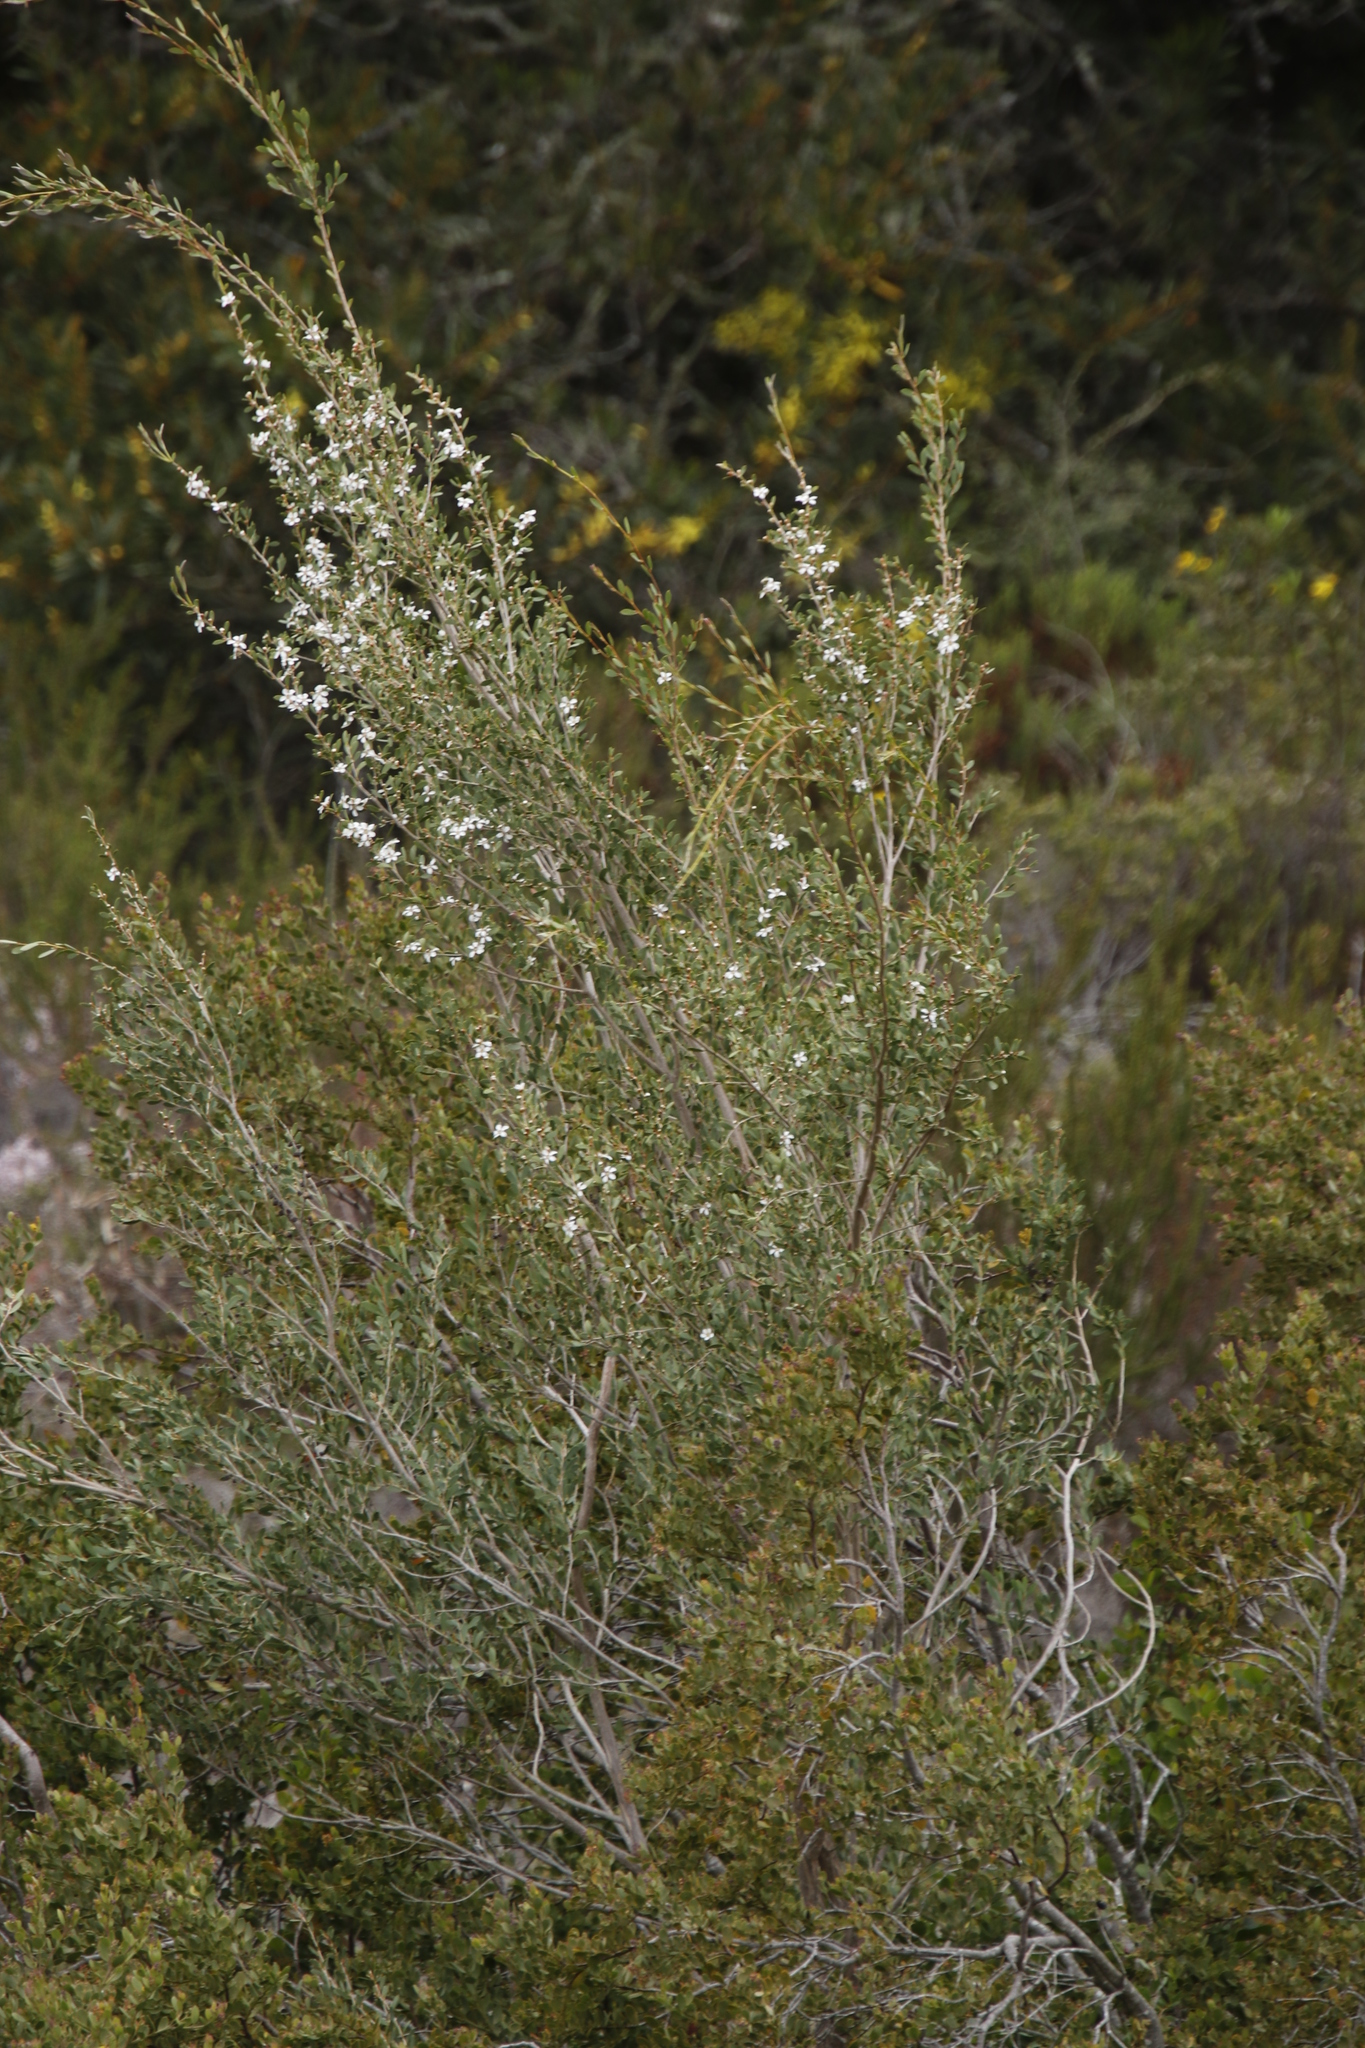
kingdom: Plantae
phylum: Tracheophyta
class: Magnoliopsida
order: Myrtales
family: Myrtaceae
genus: Leptospermum
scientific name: Leptospermum laevigatum
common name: Australian teatree
